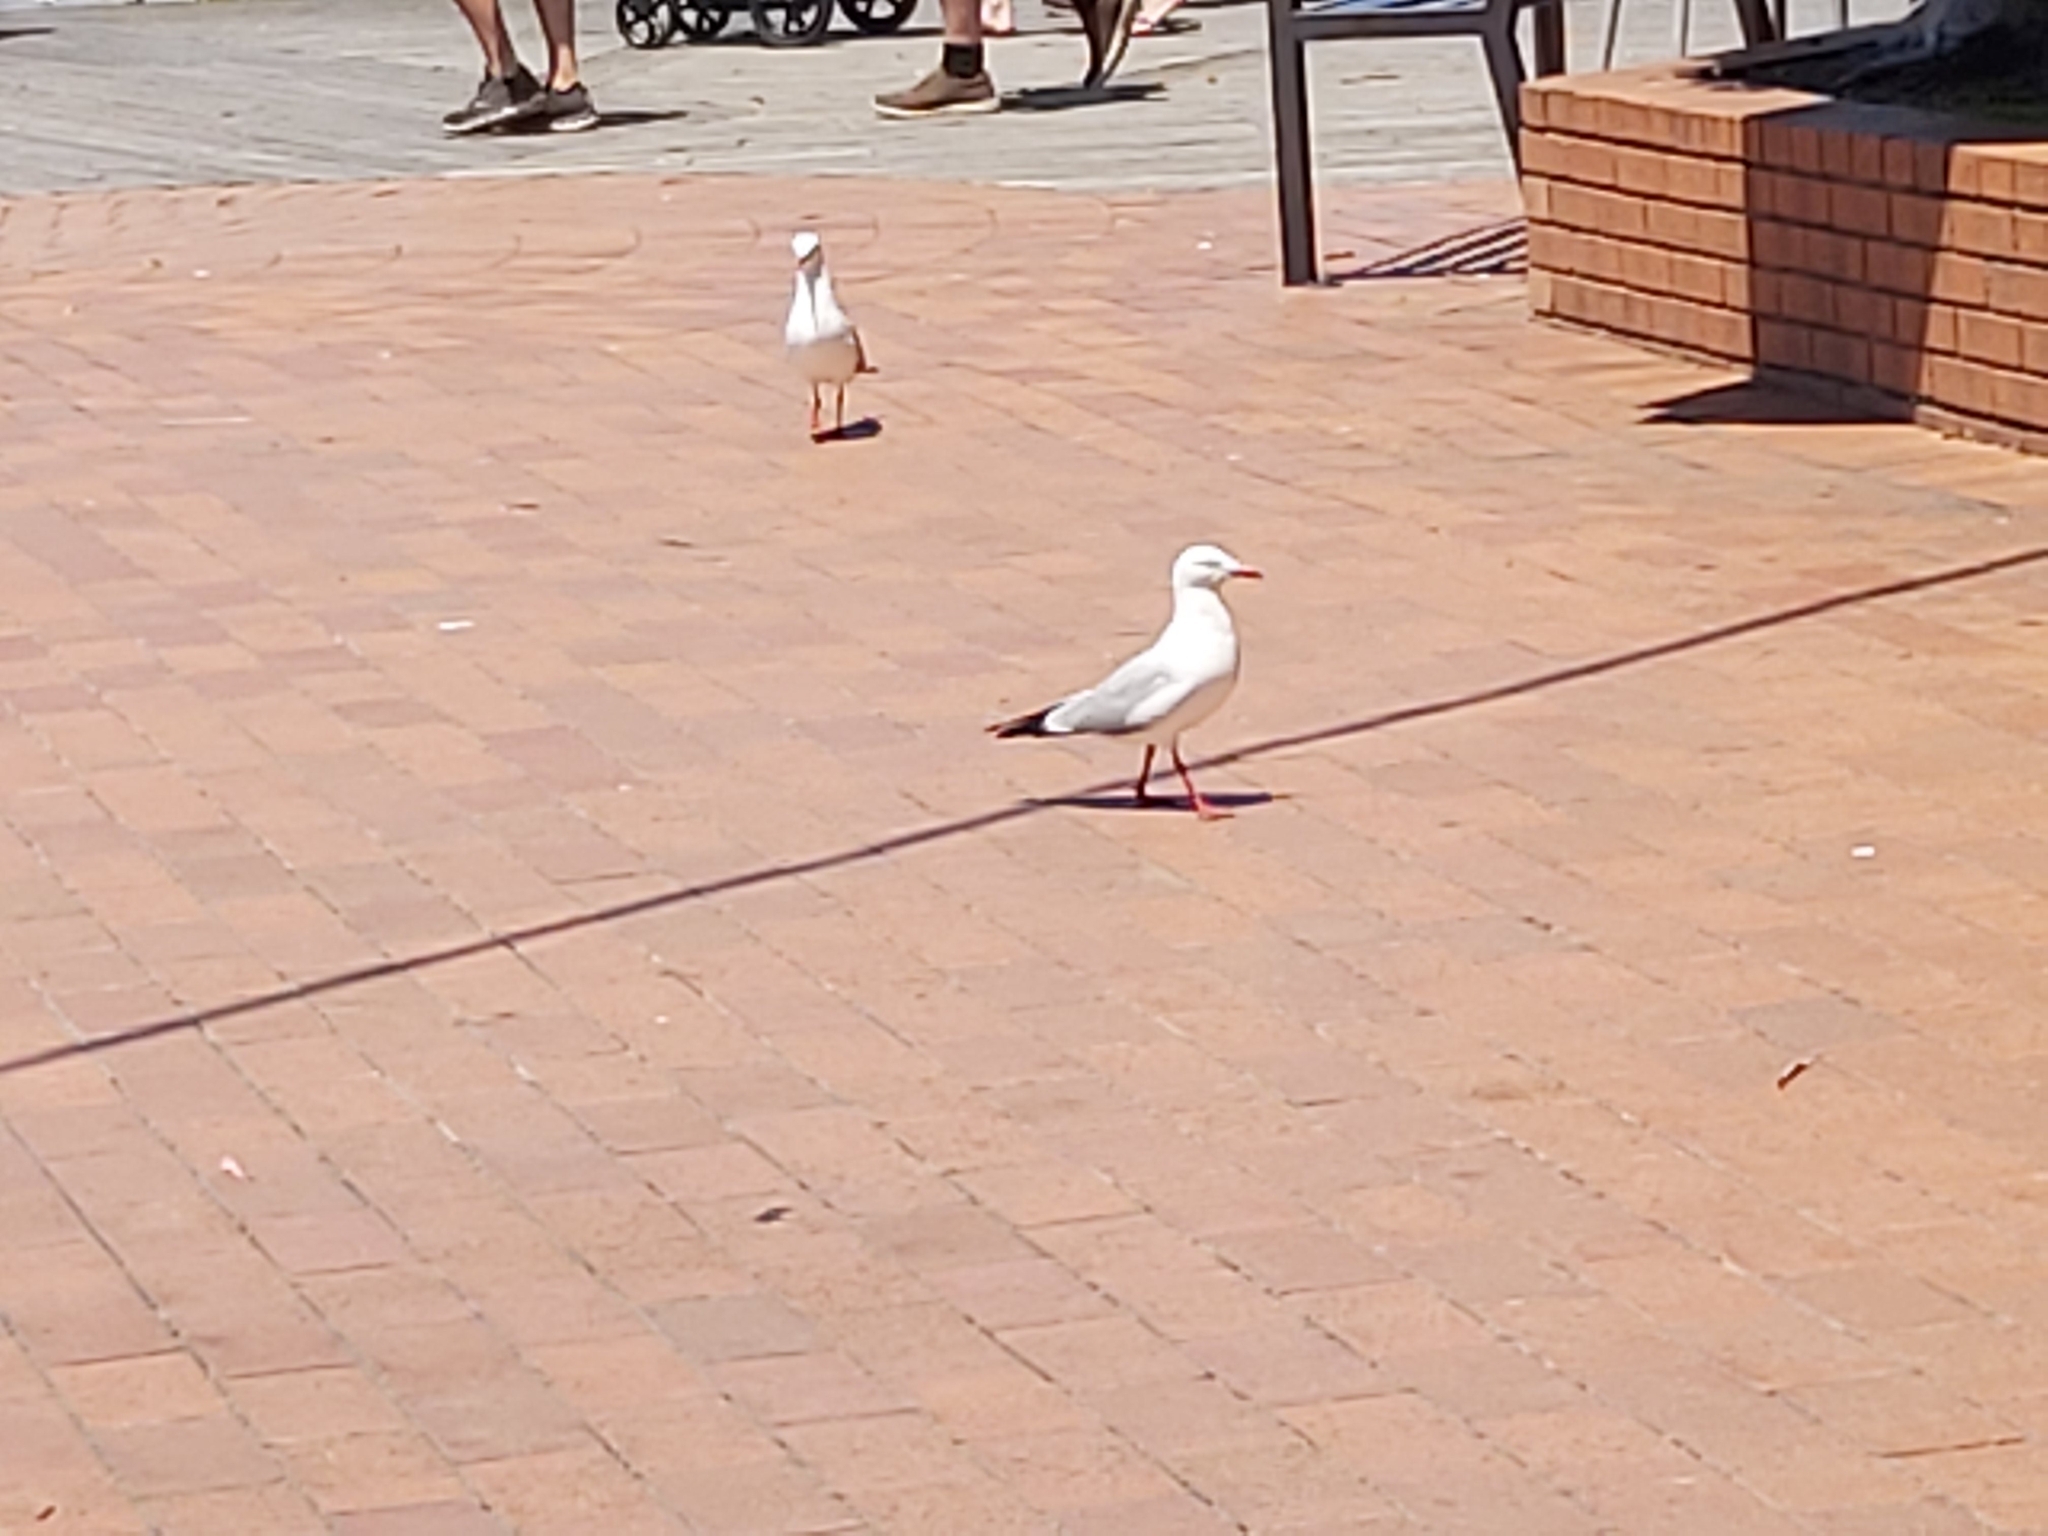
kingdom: Animalia
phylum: Chordata
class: Aves
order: Charadriiformes
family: Laridae
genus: Chroicocephalus
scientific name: Chroicocephalus novaehollandiae
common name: Silver gull
